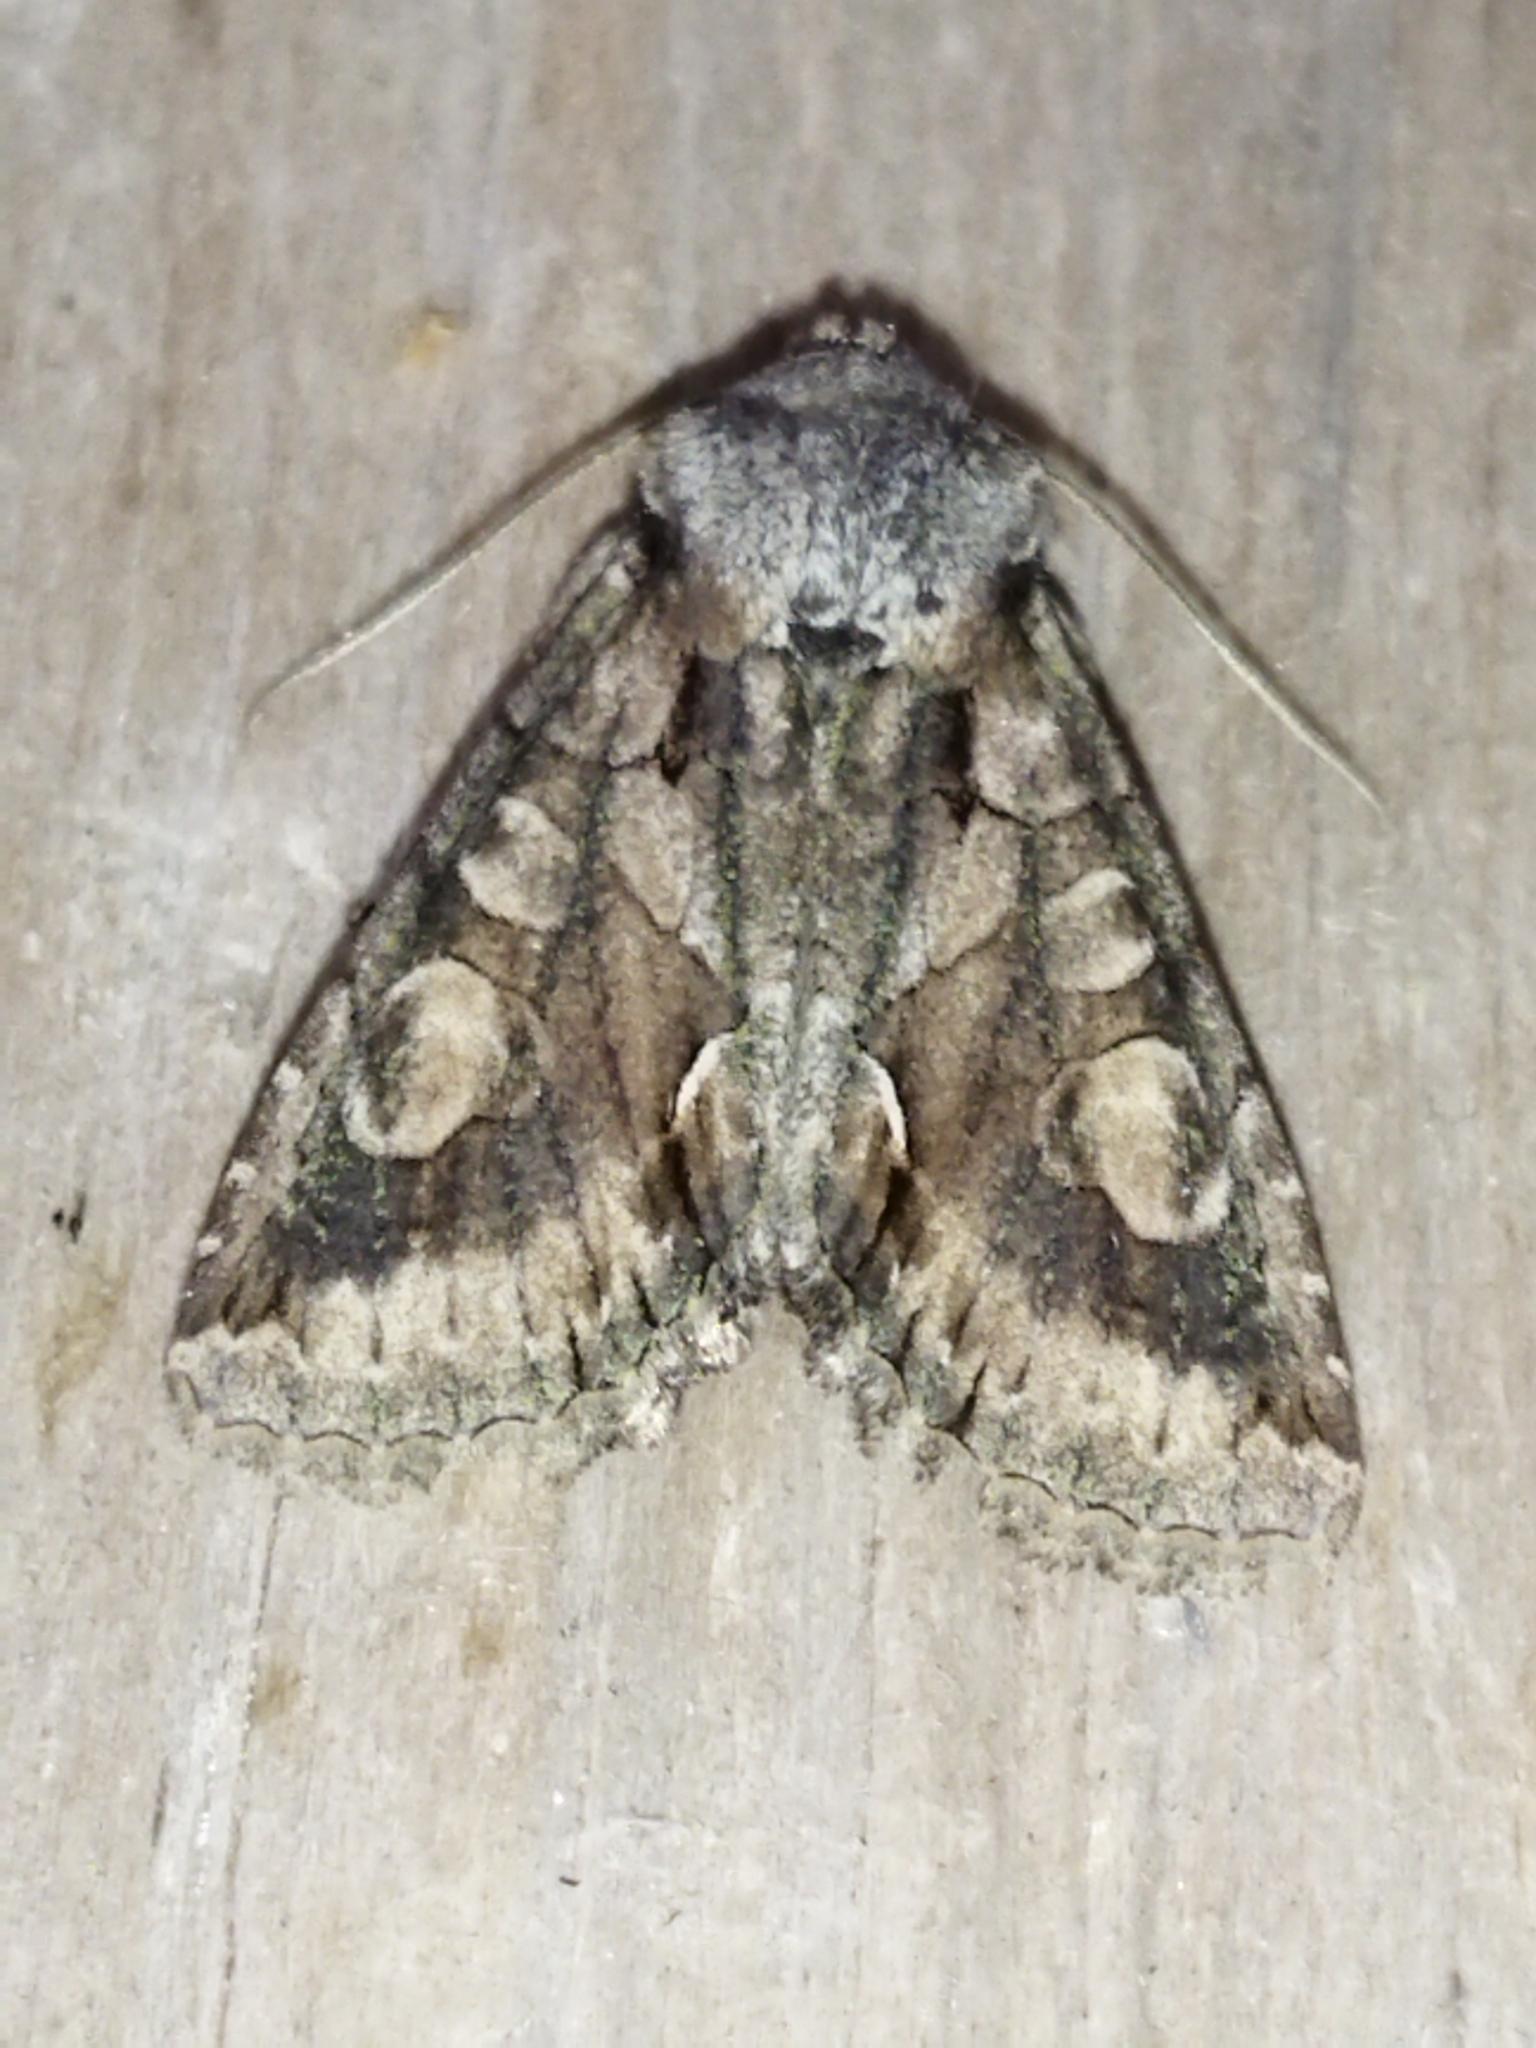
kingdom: Animalia
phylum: Arthropoda
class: Insecta
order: Lepidoptera
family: Noctuidae
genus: Allophyes
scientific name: Allophyes oxyacanthae
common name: Green-brindled crescent
